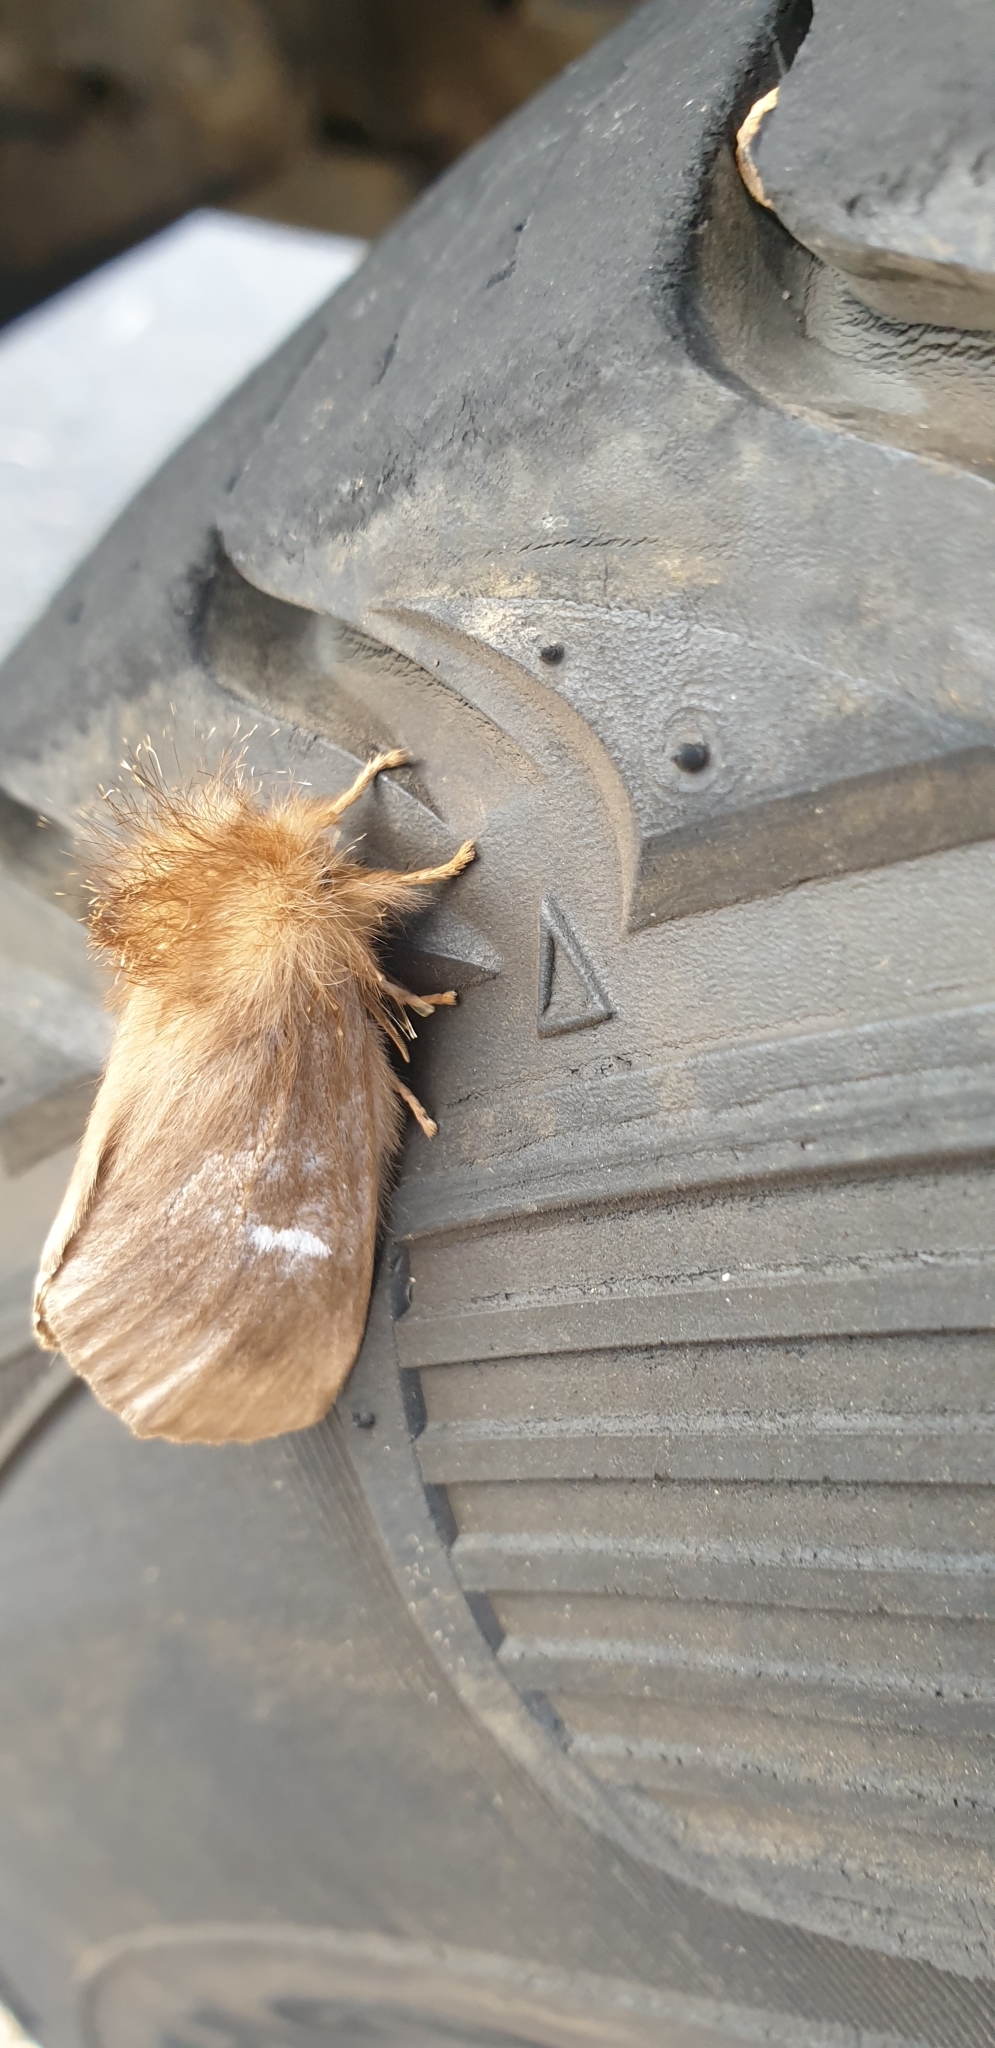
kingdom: Animalia
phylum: Arthropoda
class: Insecta
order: Lepidoptera
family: Notodontidae
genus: Ochrogaster
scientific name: Ochrogaster lunifer
